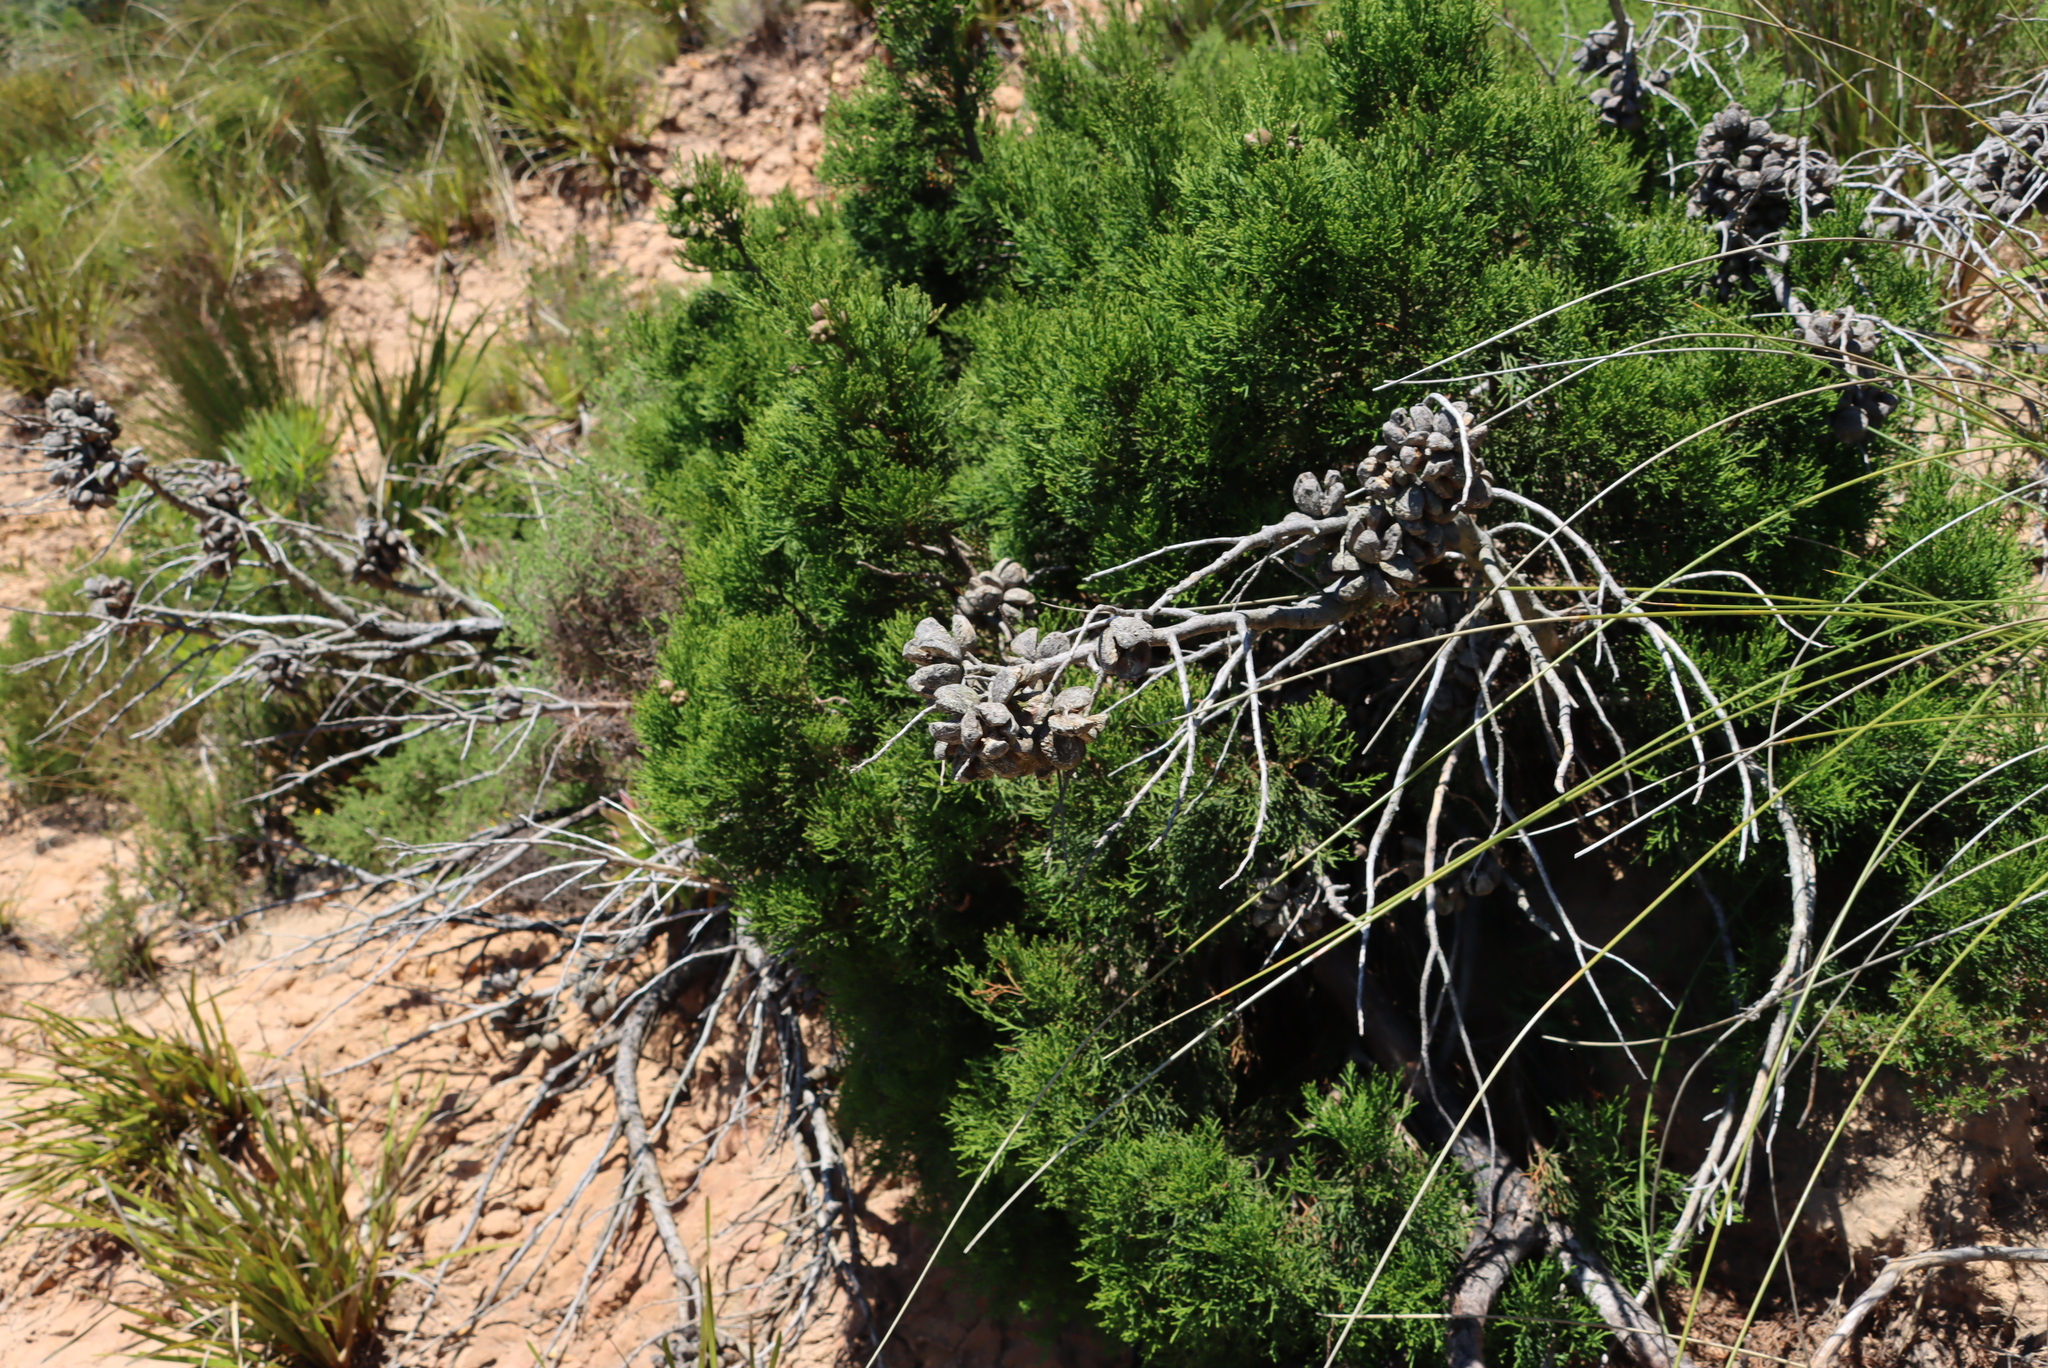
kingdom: Plantae
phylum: Tracheophyta
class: Pinopsida
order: Pinales
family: Cupressaceae
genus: Widdringtonia
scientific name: Widdringtonia nodiflora
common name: Cape cypress
